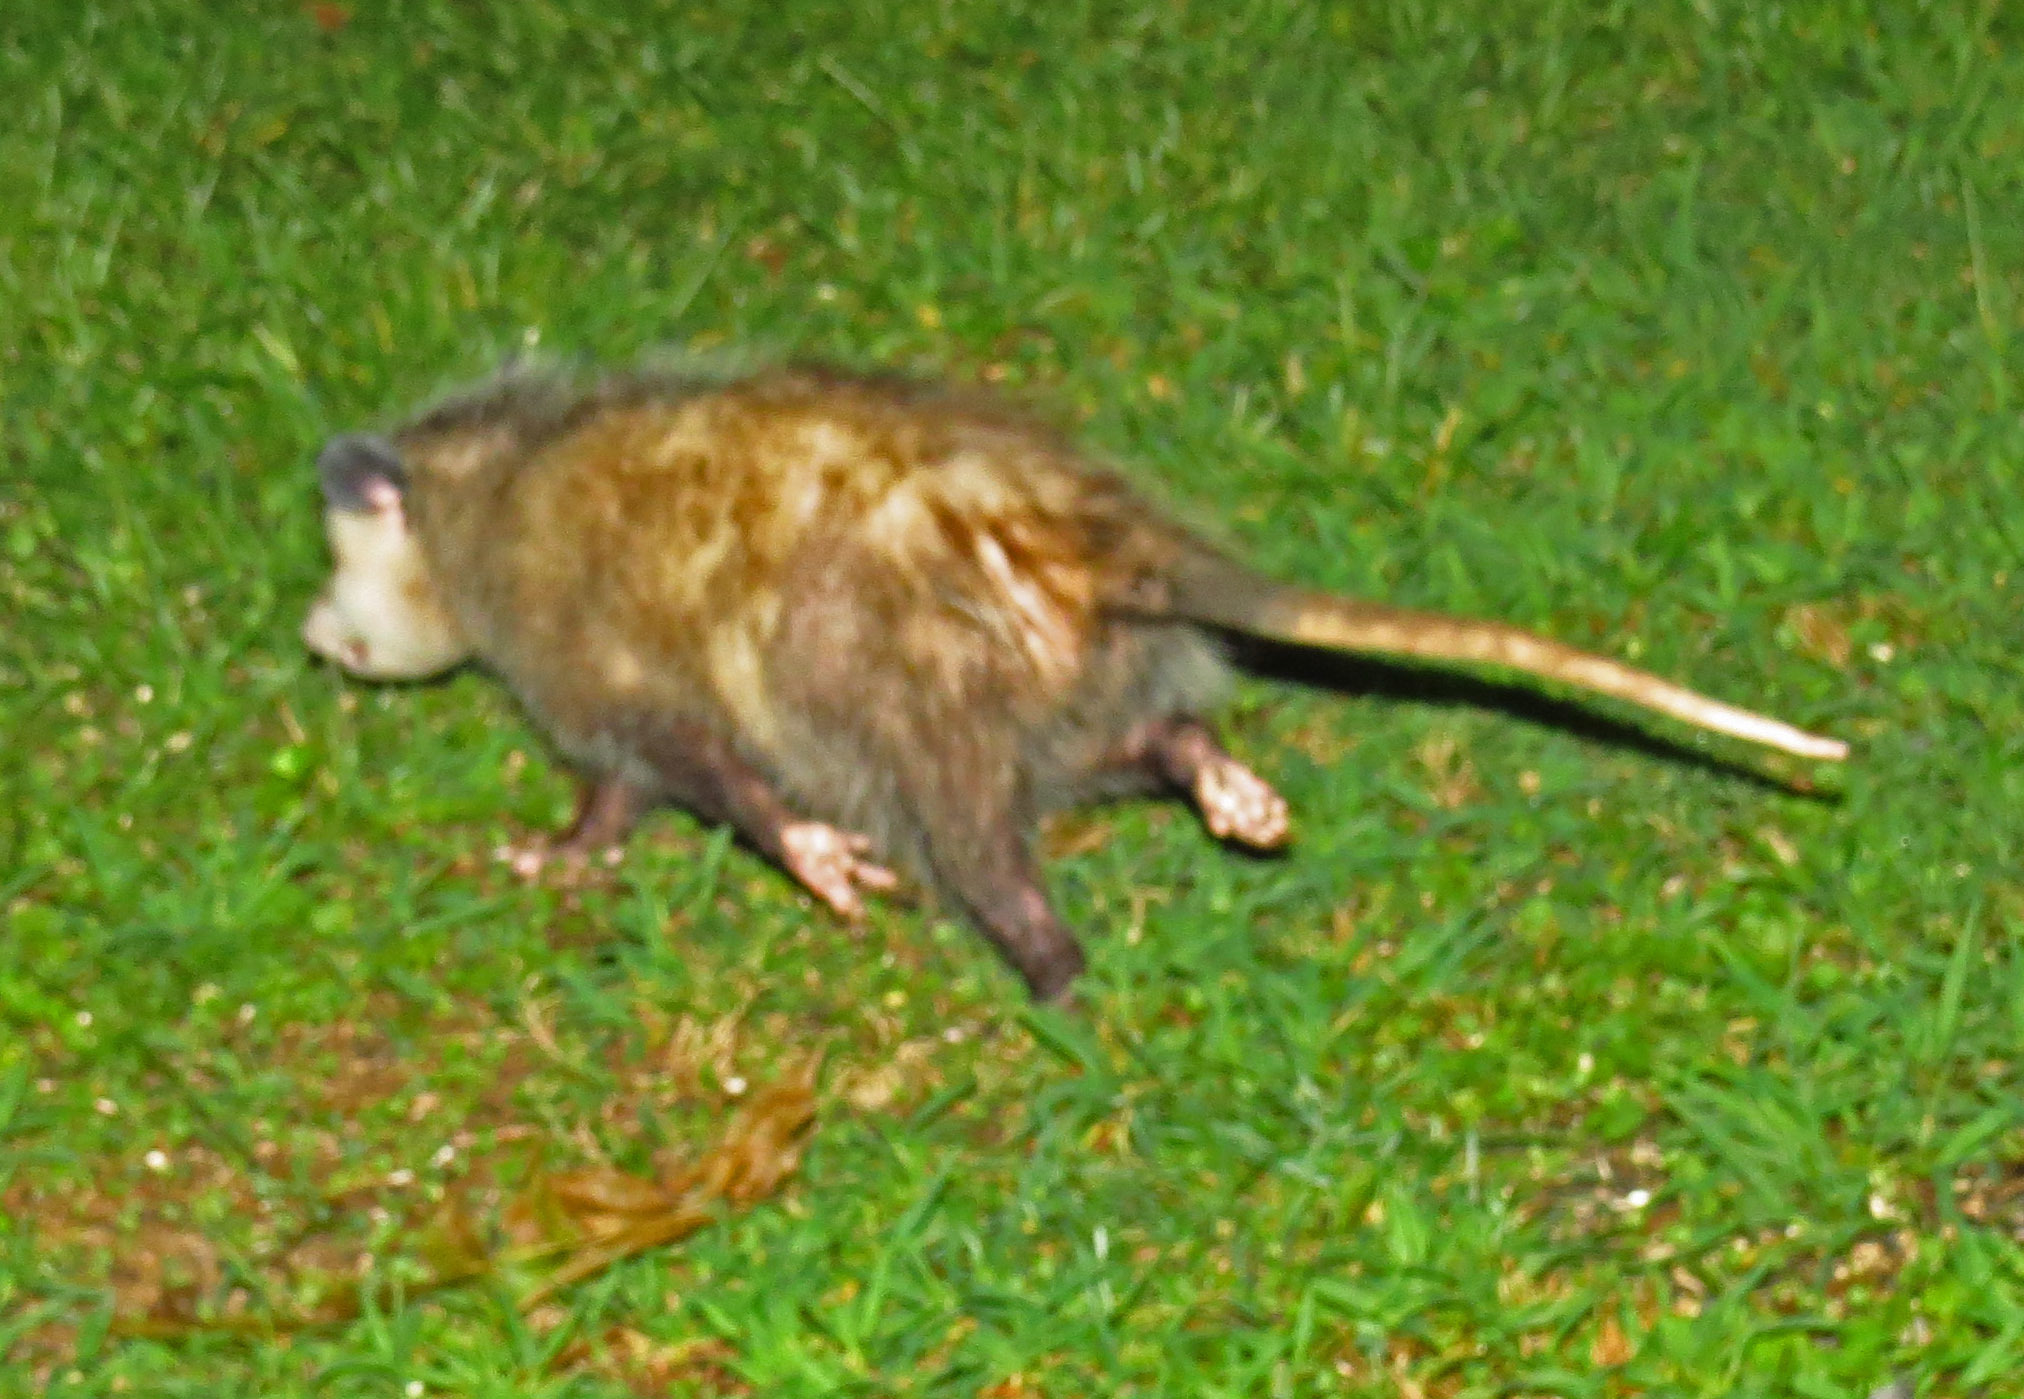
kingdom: Animalia
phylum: Chordata
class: Mammalia
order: Didelphimorphia
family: Didelphidae
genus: Didelphis
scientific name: Didelphis virginiana
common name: Virginia opossum
